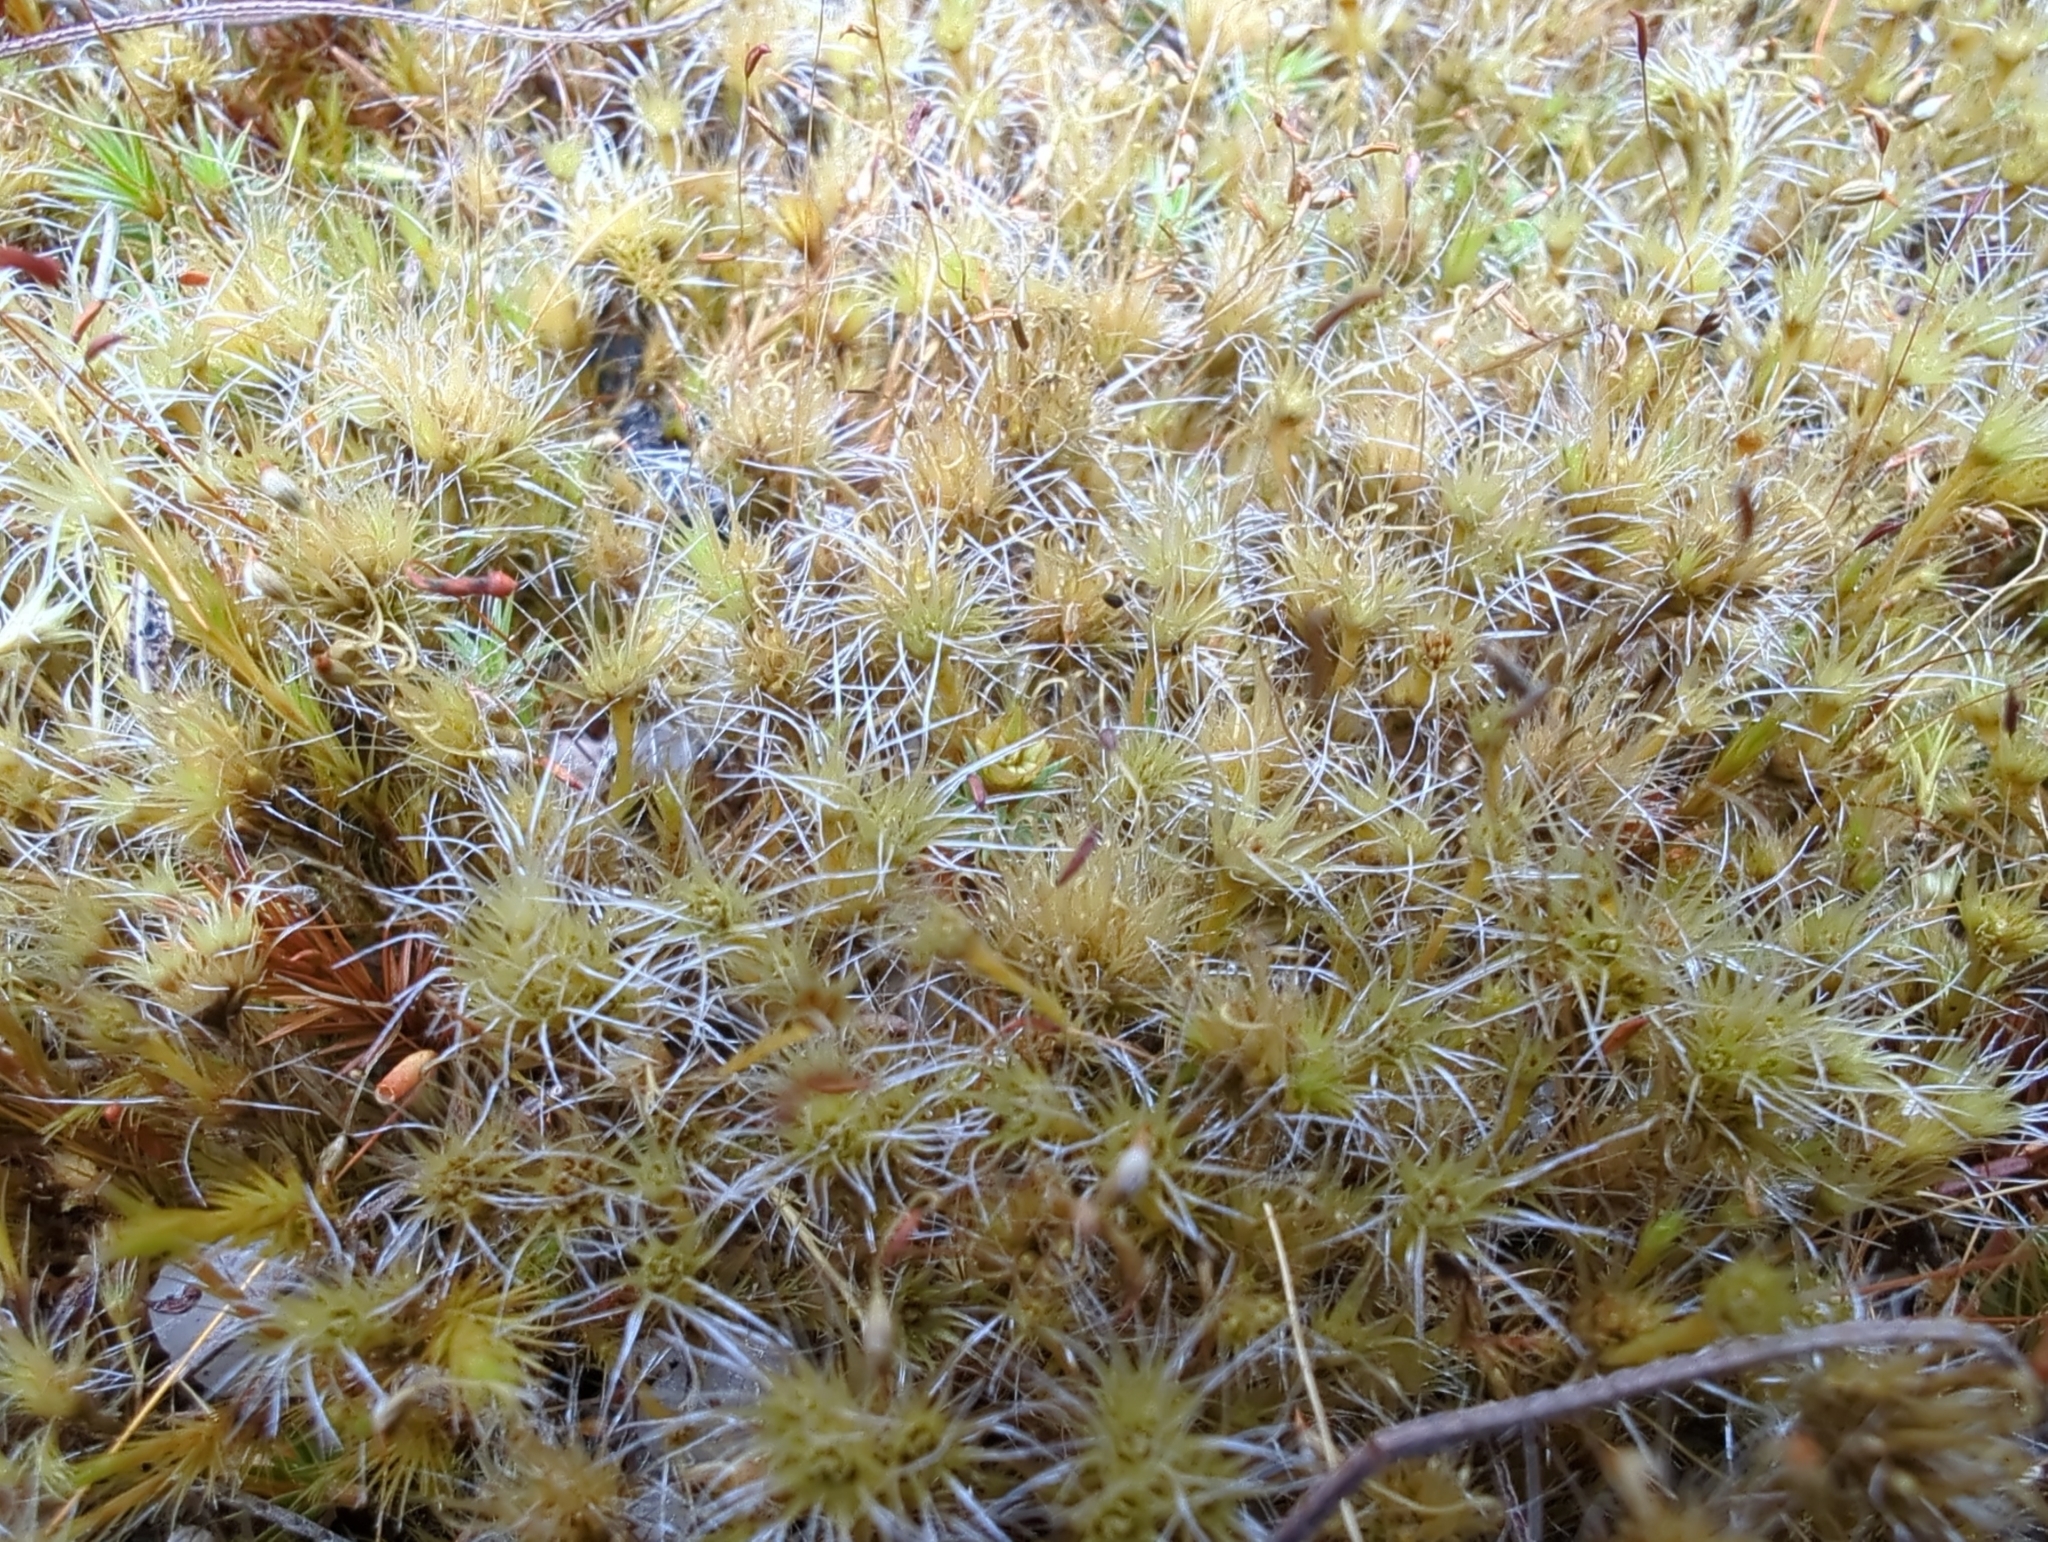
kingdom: Plantae
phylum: Bryophyta
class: Bryopsida
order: Dicranales
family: Leucobryaceae
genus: Campylopus
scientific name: Campylopus introflexus
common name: Heath star moss
